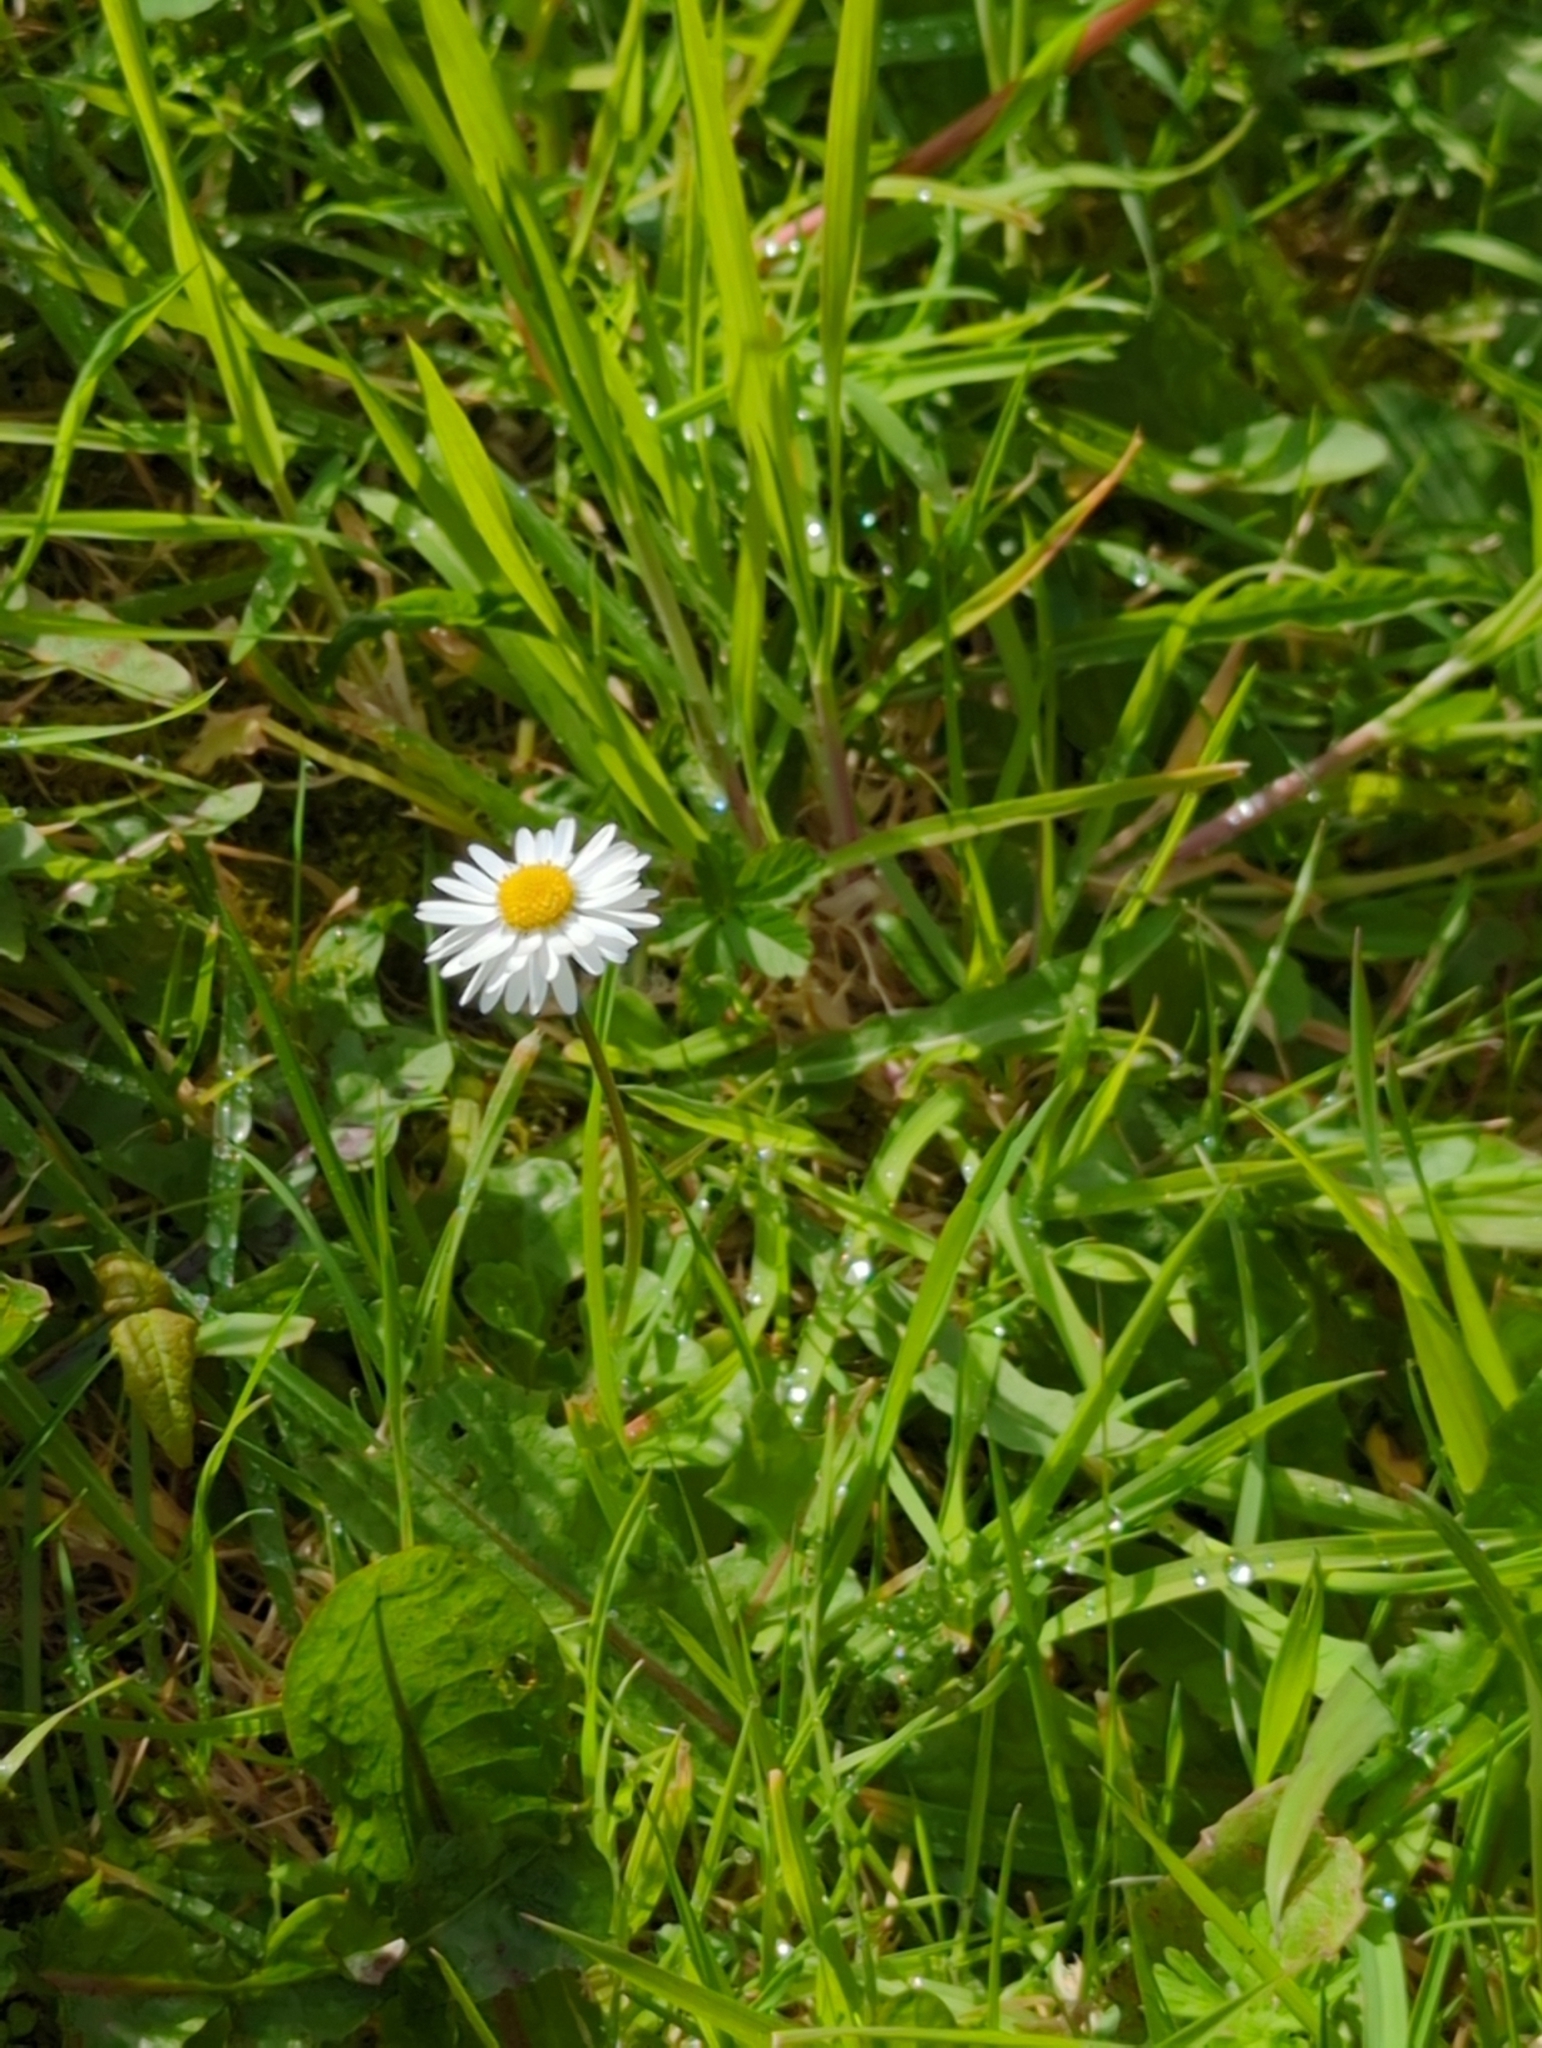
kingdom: Plantae
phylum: Tracheophyta
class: Magnoliopsida
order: Asterales
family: Asteraceae
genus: Bellis
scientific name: Bellis perennis
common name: Lawndaisy
